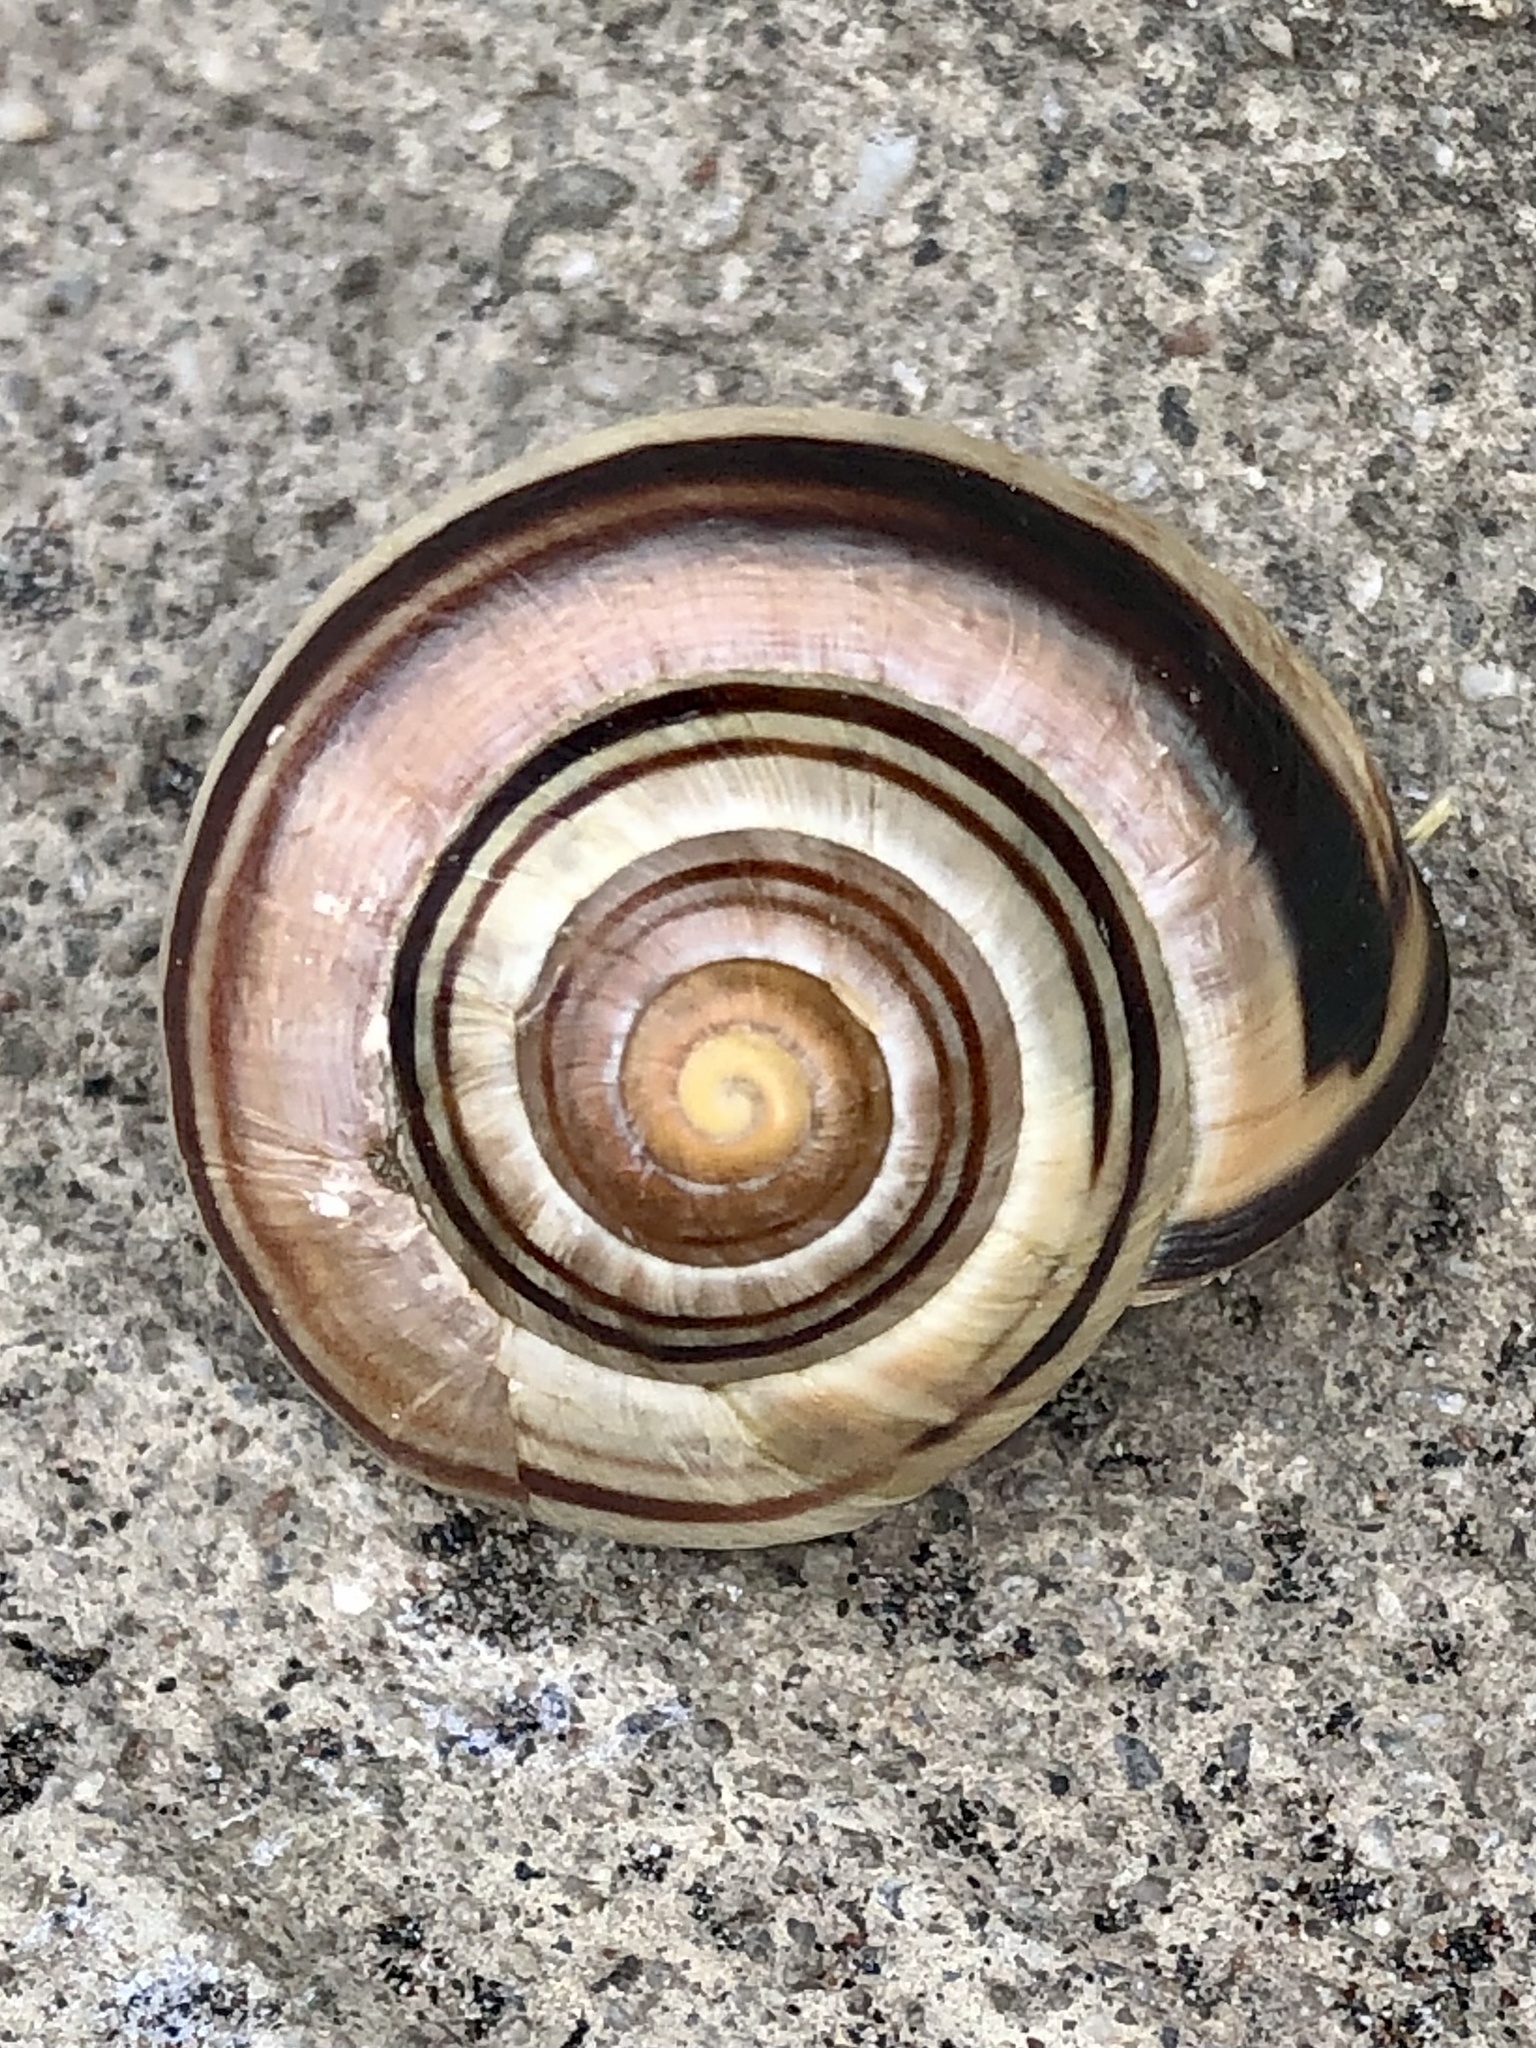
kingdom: Animalia
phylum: Mollusca
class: Gastropoda
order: Stylommatophora
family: Helicidae
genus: Cepaea
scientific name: Cepaea nemoralis
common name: Grovesnail
